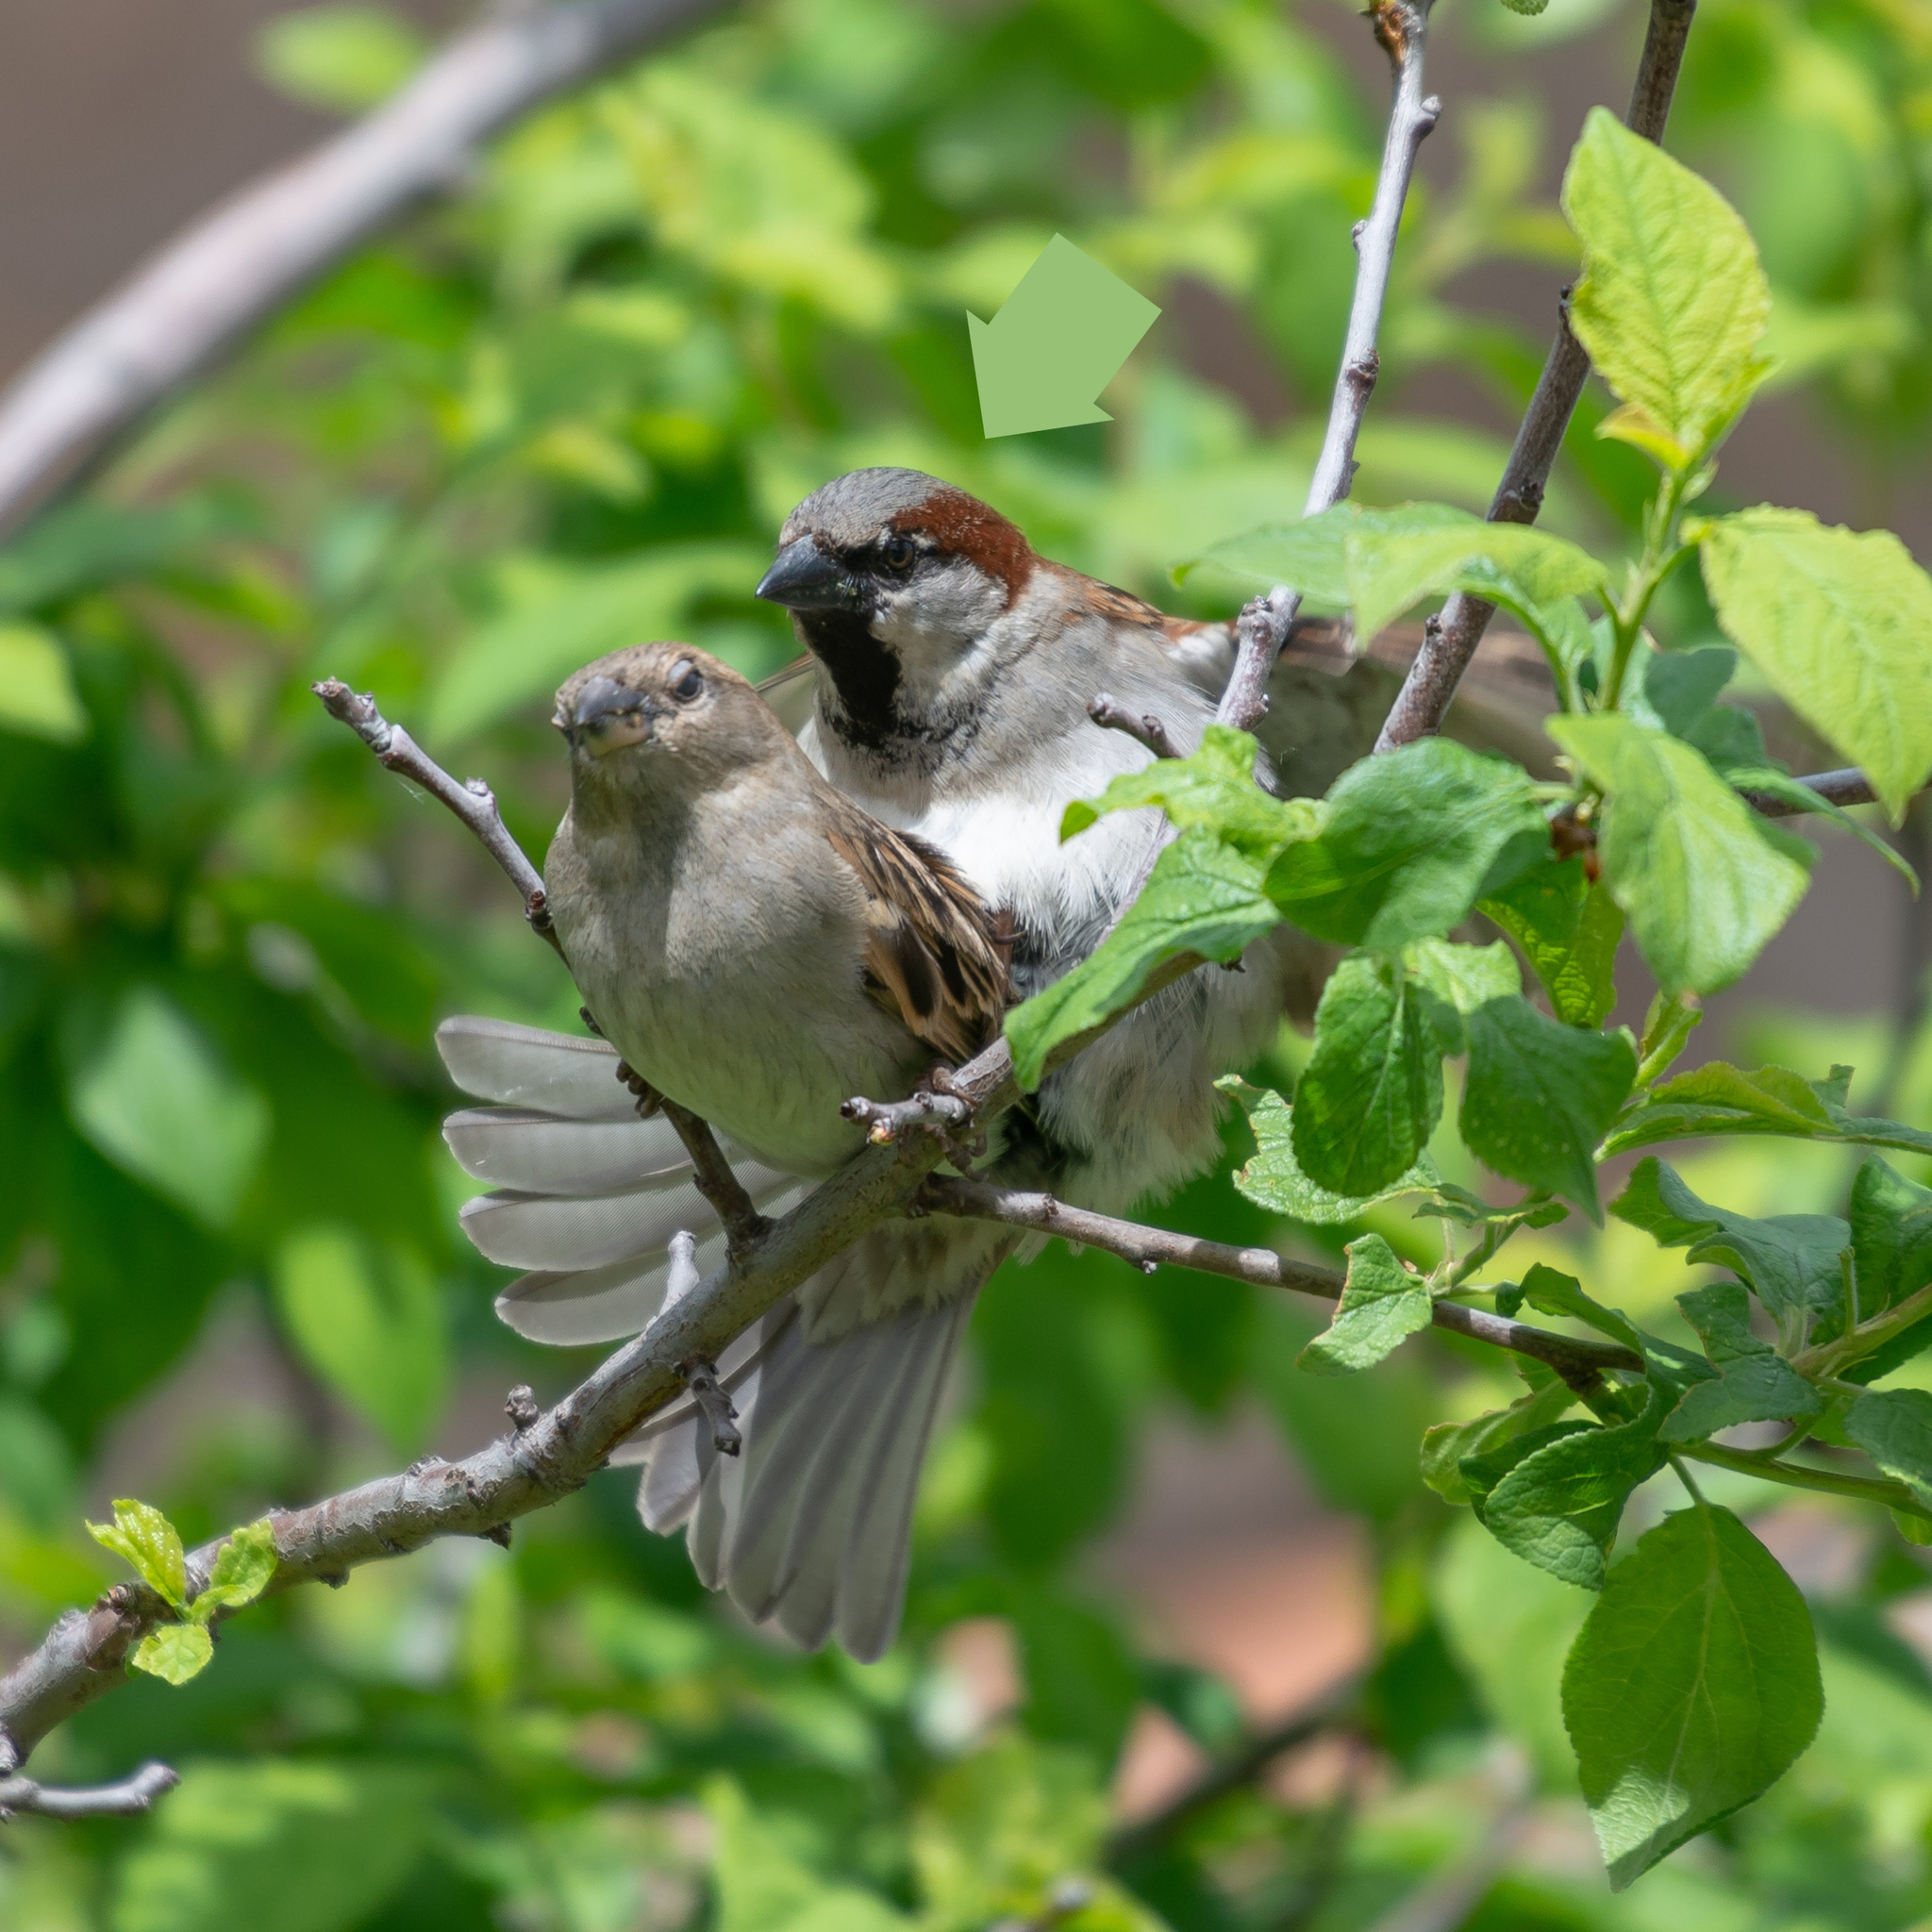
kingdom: Animalia
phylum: Chordata
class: Aves
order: Passeriformes
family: Passeridae
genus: Passer
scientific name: Passer domesticus
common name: House sparrow
